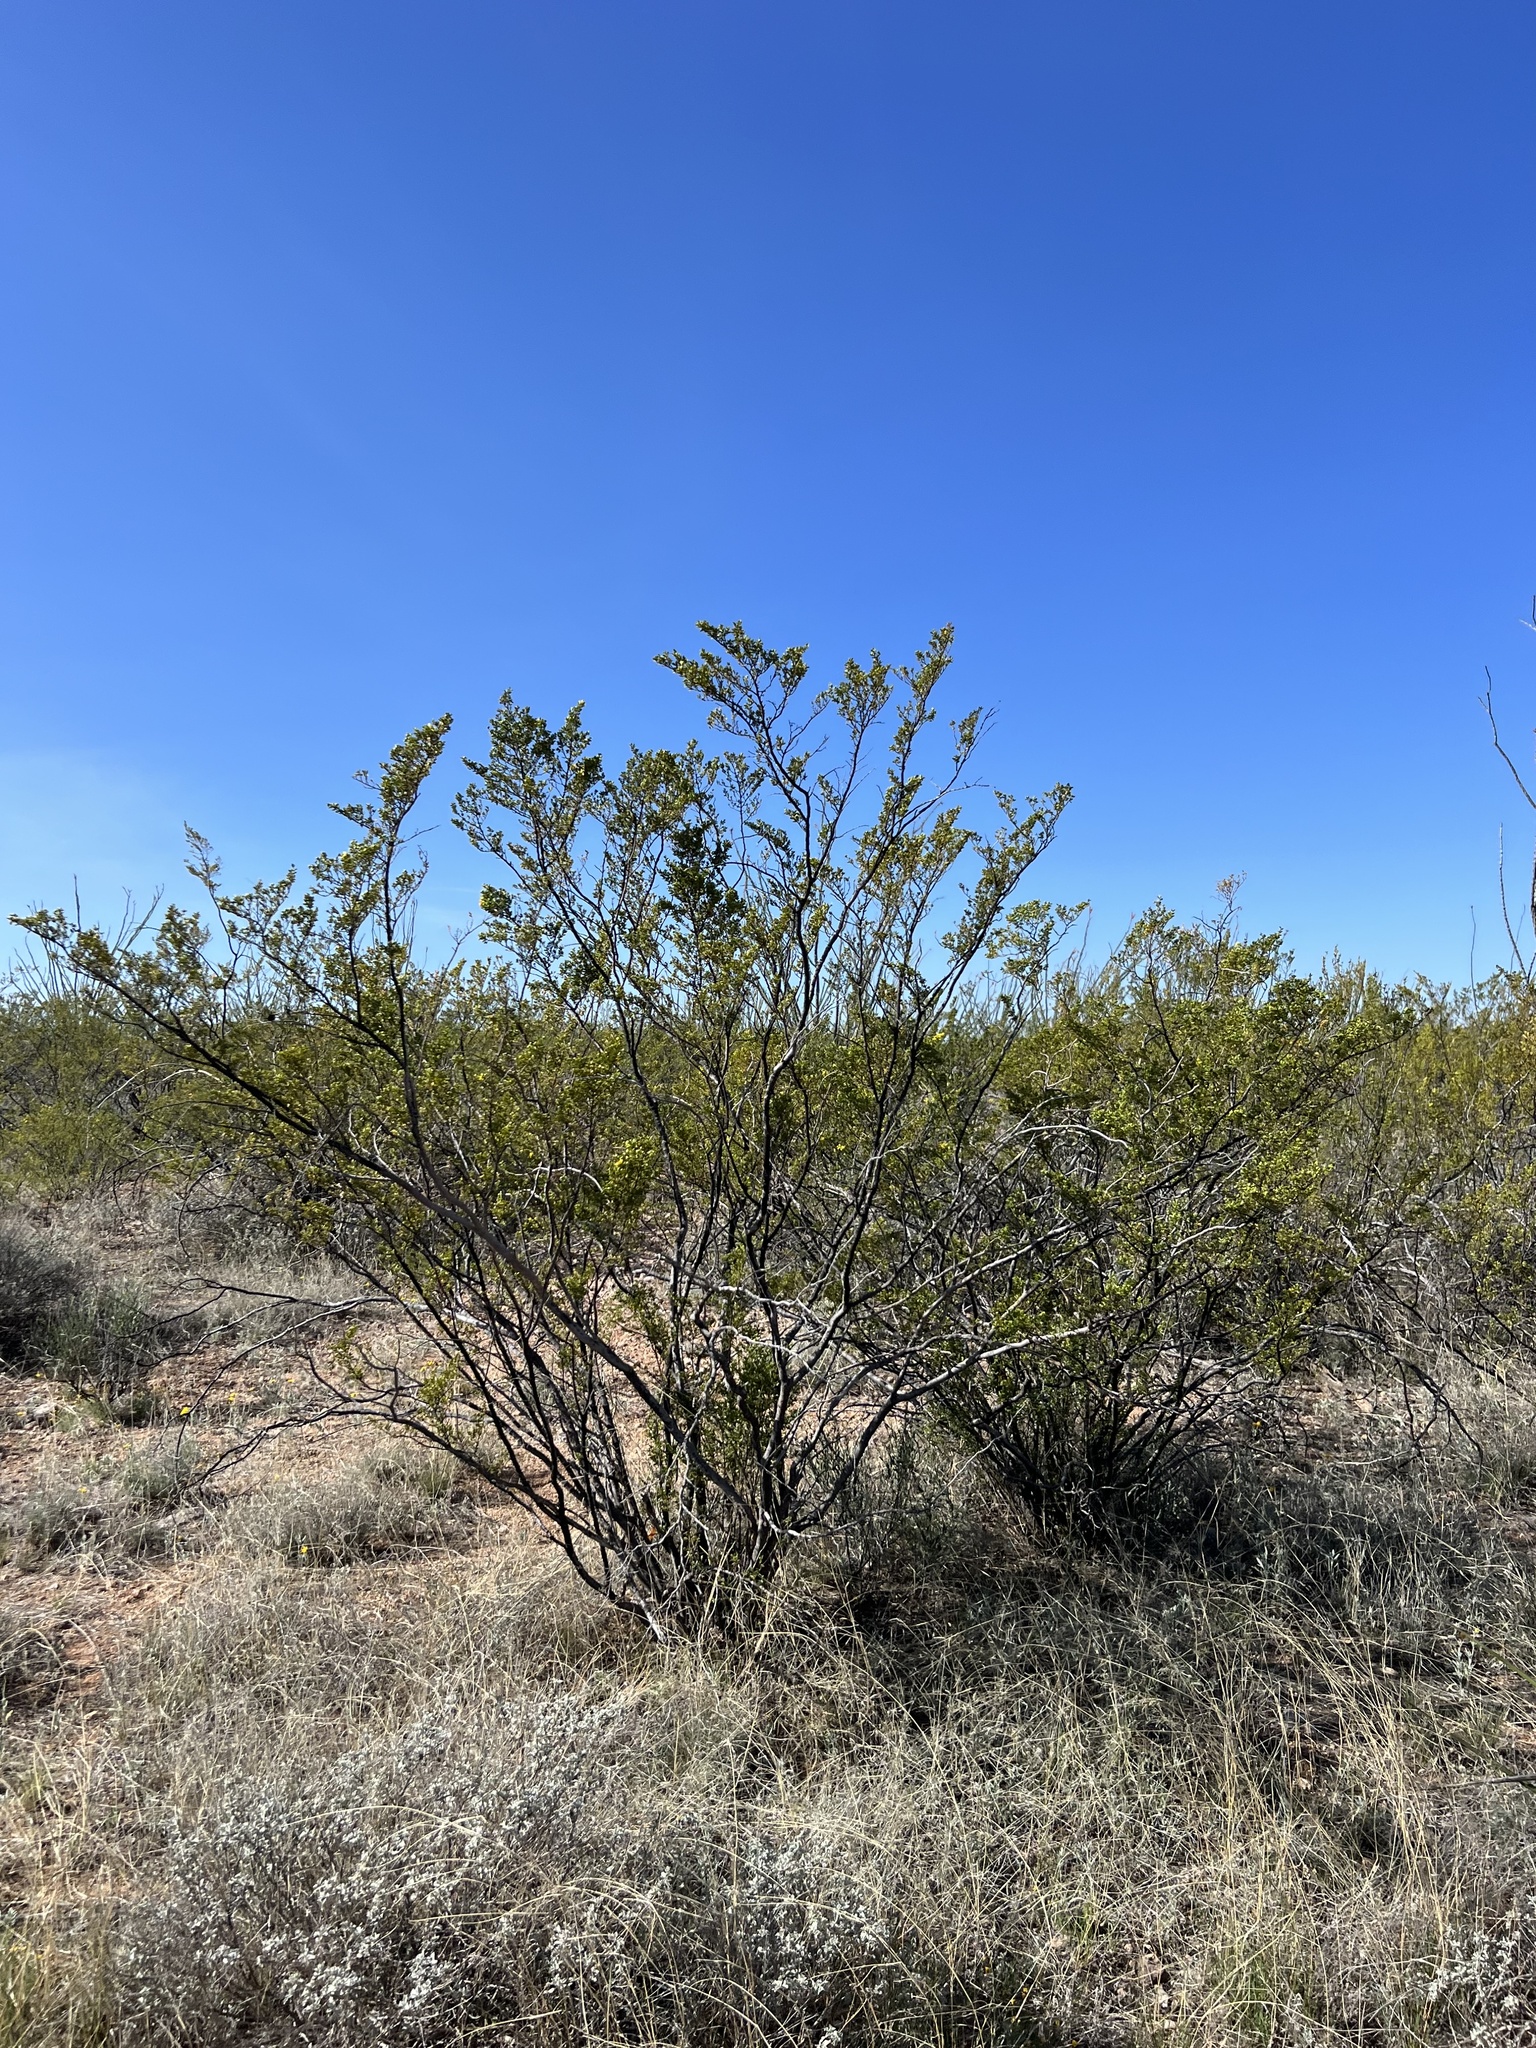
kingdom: Plantae
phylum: Tracheophyta
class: Magnoliopsida
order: Zygophyllales
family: Zygophyllaceae
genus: Larrea
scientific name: Larrea tridentata
